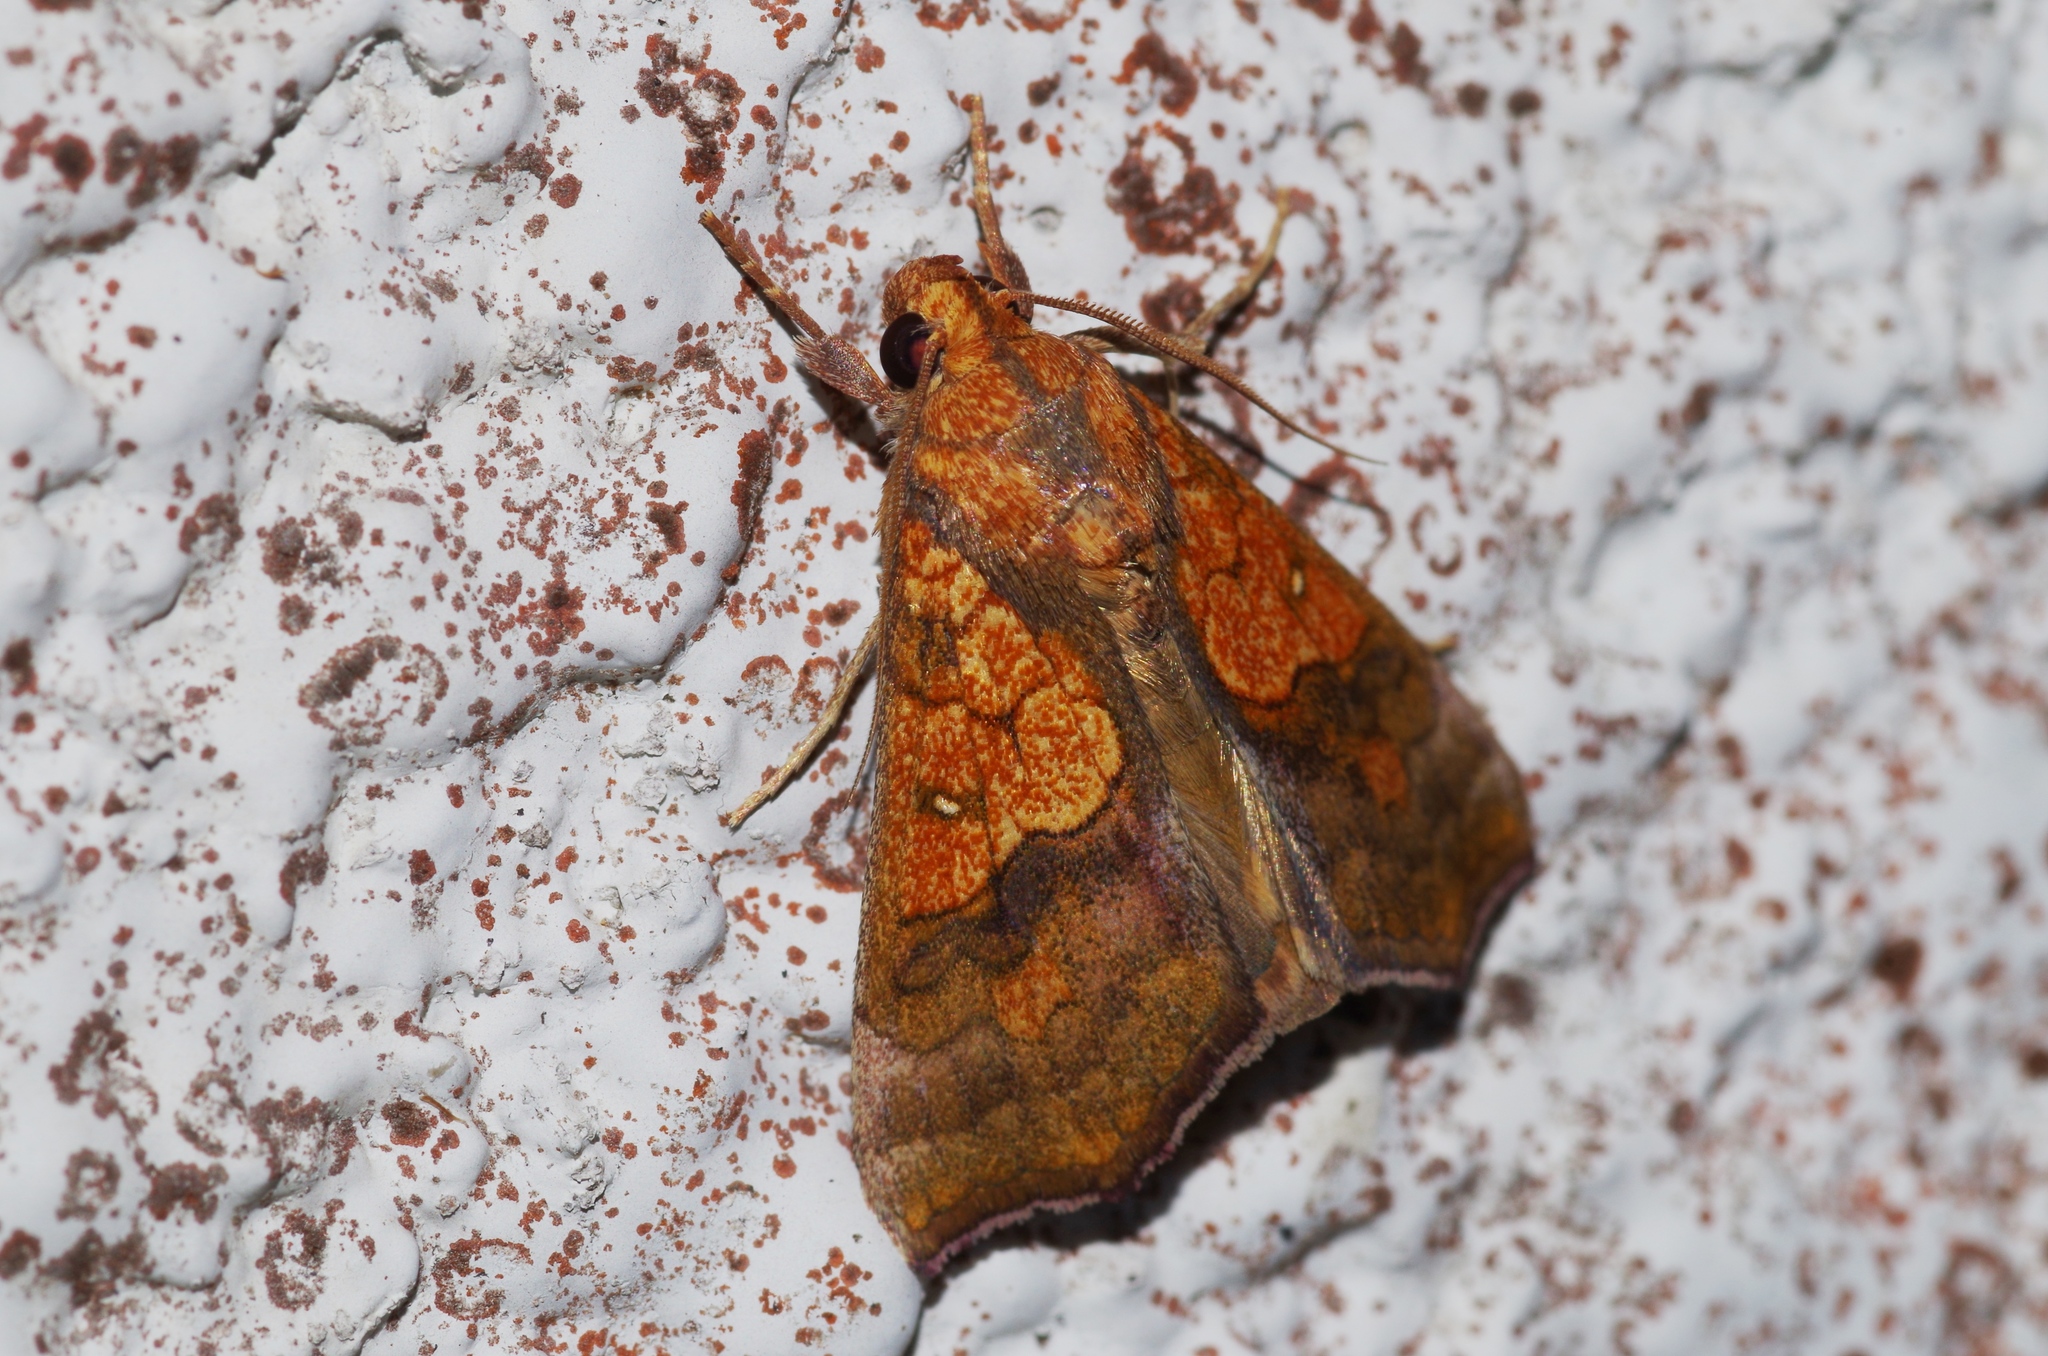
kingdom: Animalia
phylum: Arthropoda
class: Insecta
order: Lepidoptera
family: Erebidae
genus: Anomis
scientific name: Anomis flava
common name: Moth
